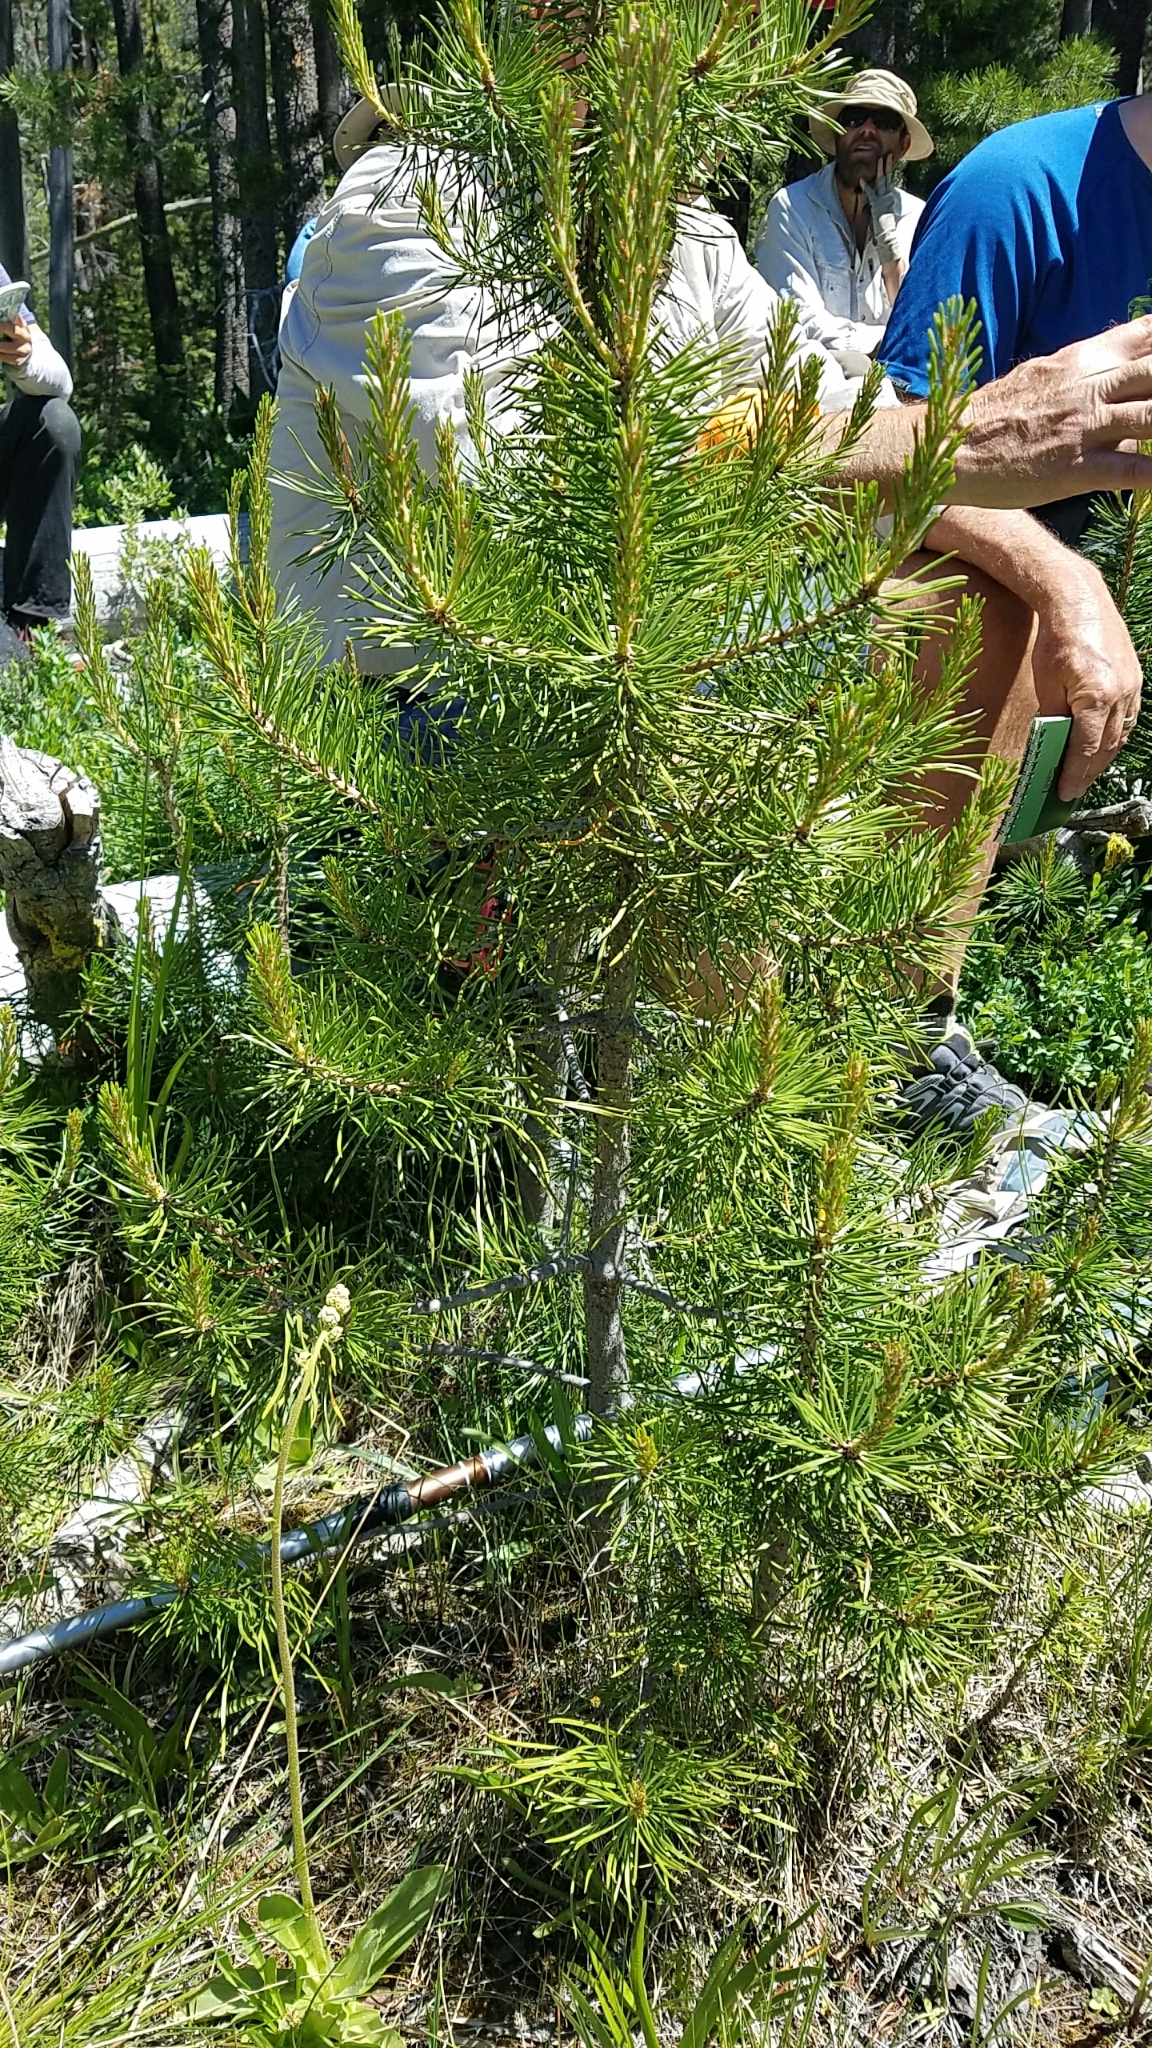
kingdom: Plantae
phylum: Tracheophyta
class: Pinopsida
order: Pinales
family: Pinaceae
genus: Pinus
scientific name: Pinus contorta
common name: Lodgepole pine
